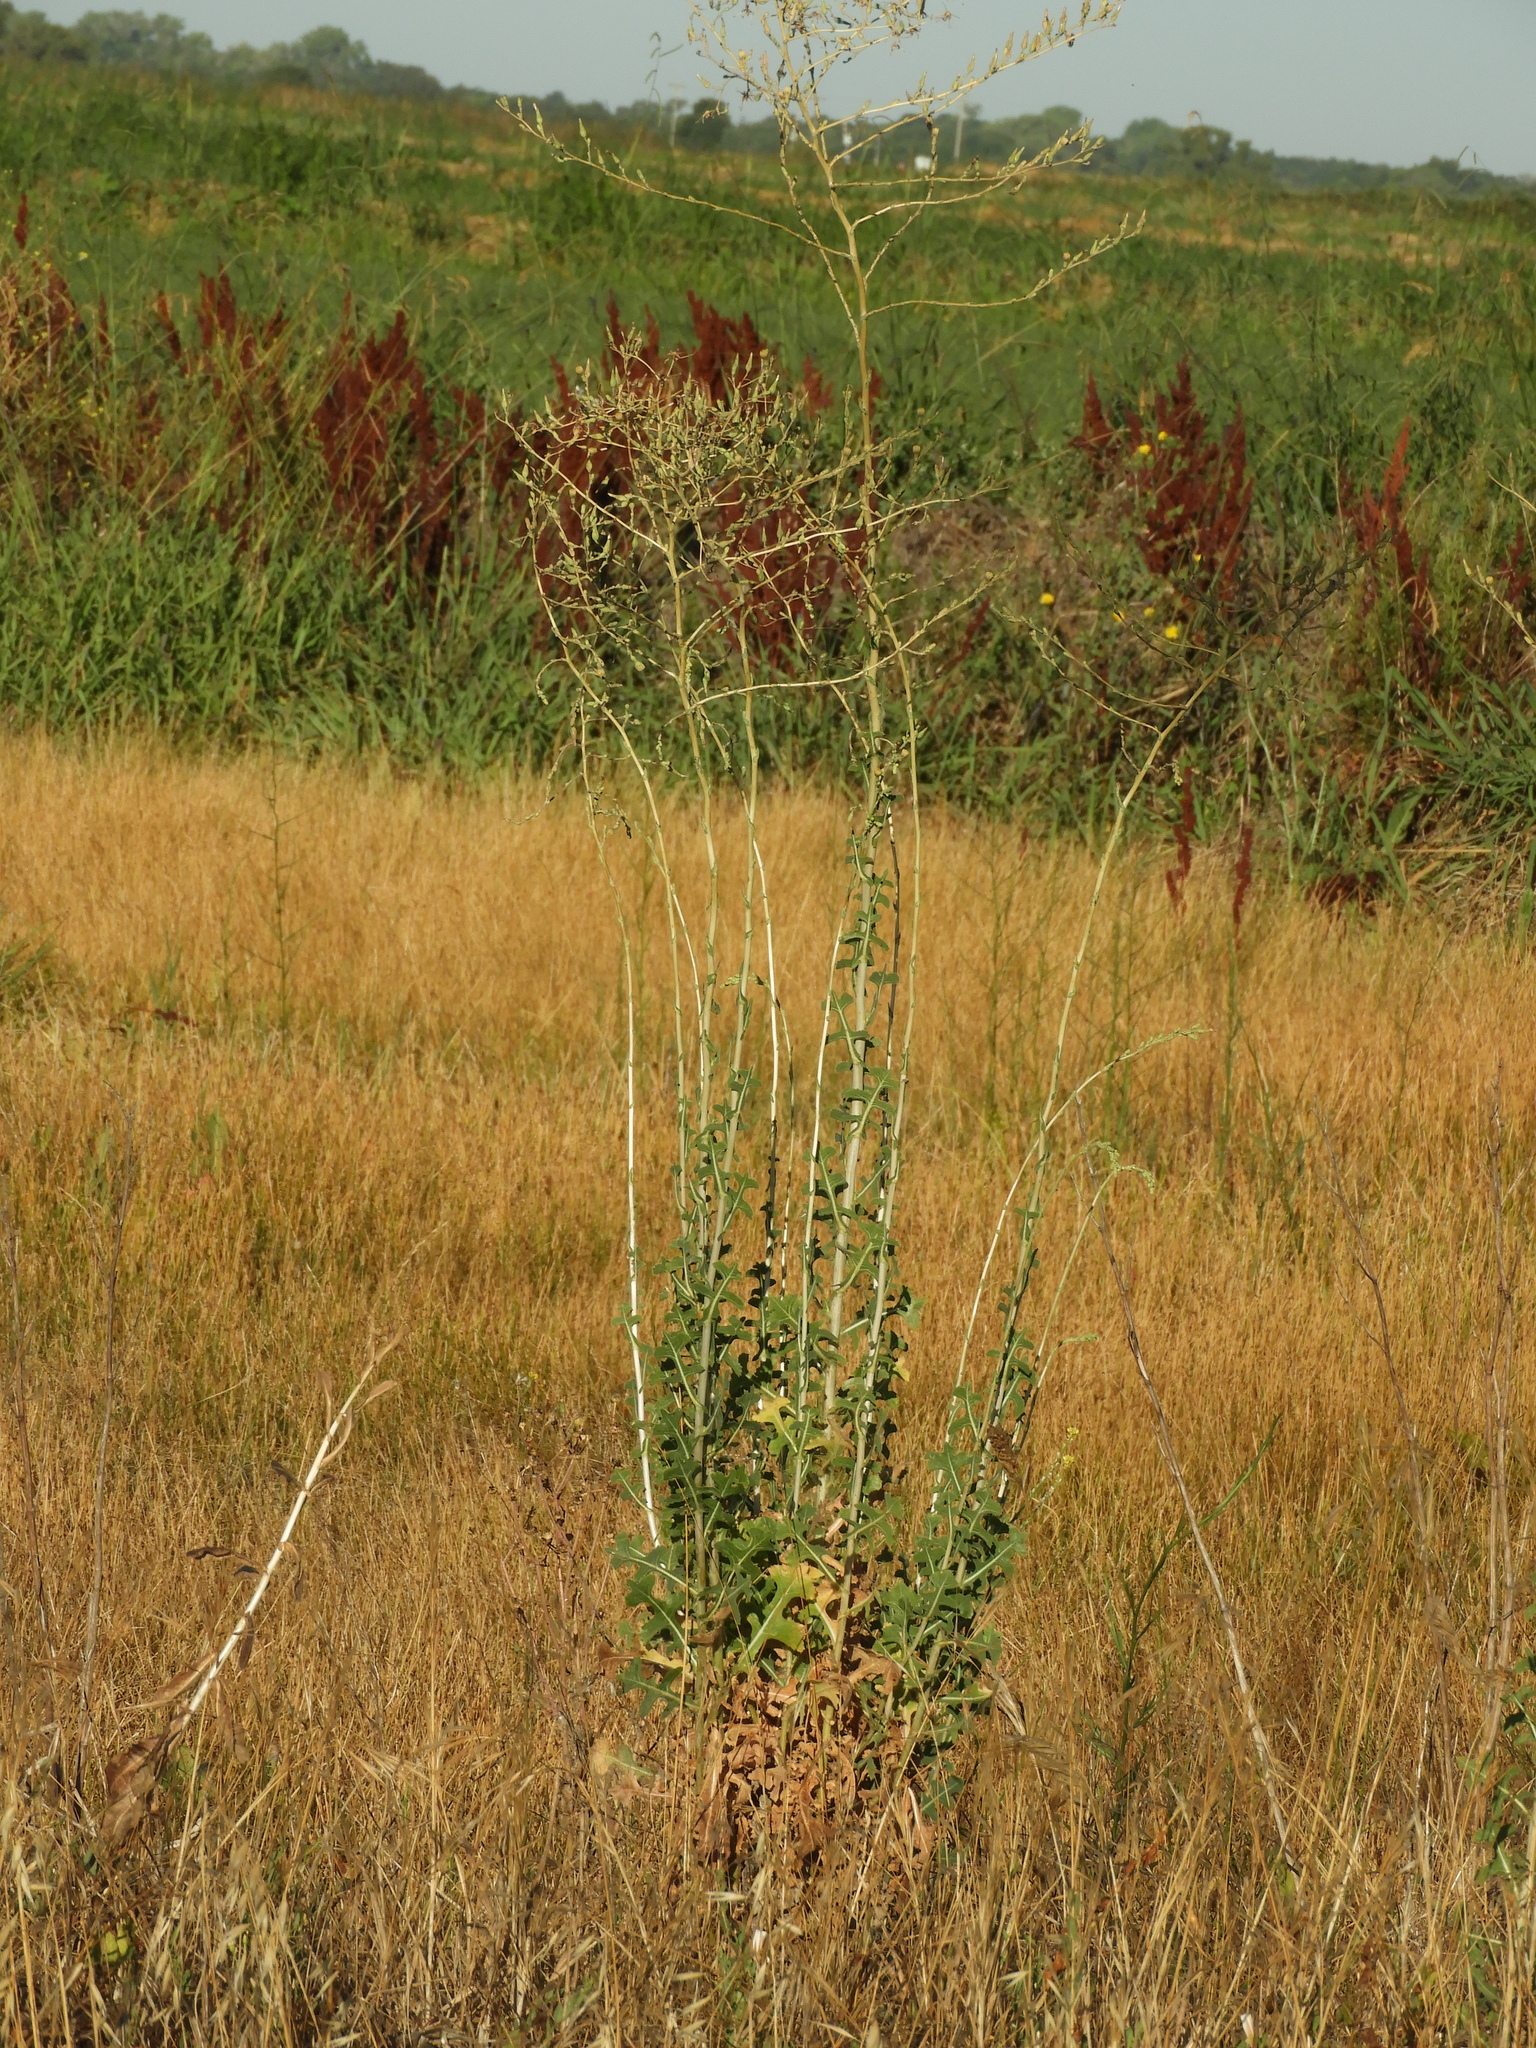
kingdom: Plantae
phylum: Tracheophyta
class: Magnoliopsida
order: Asterales
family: Asteraceae
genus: Lactuca
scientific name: Lactuca serriola
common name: Prickly lettuce
